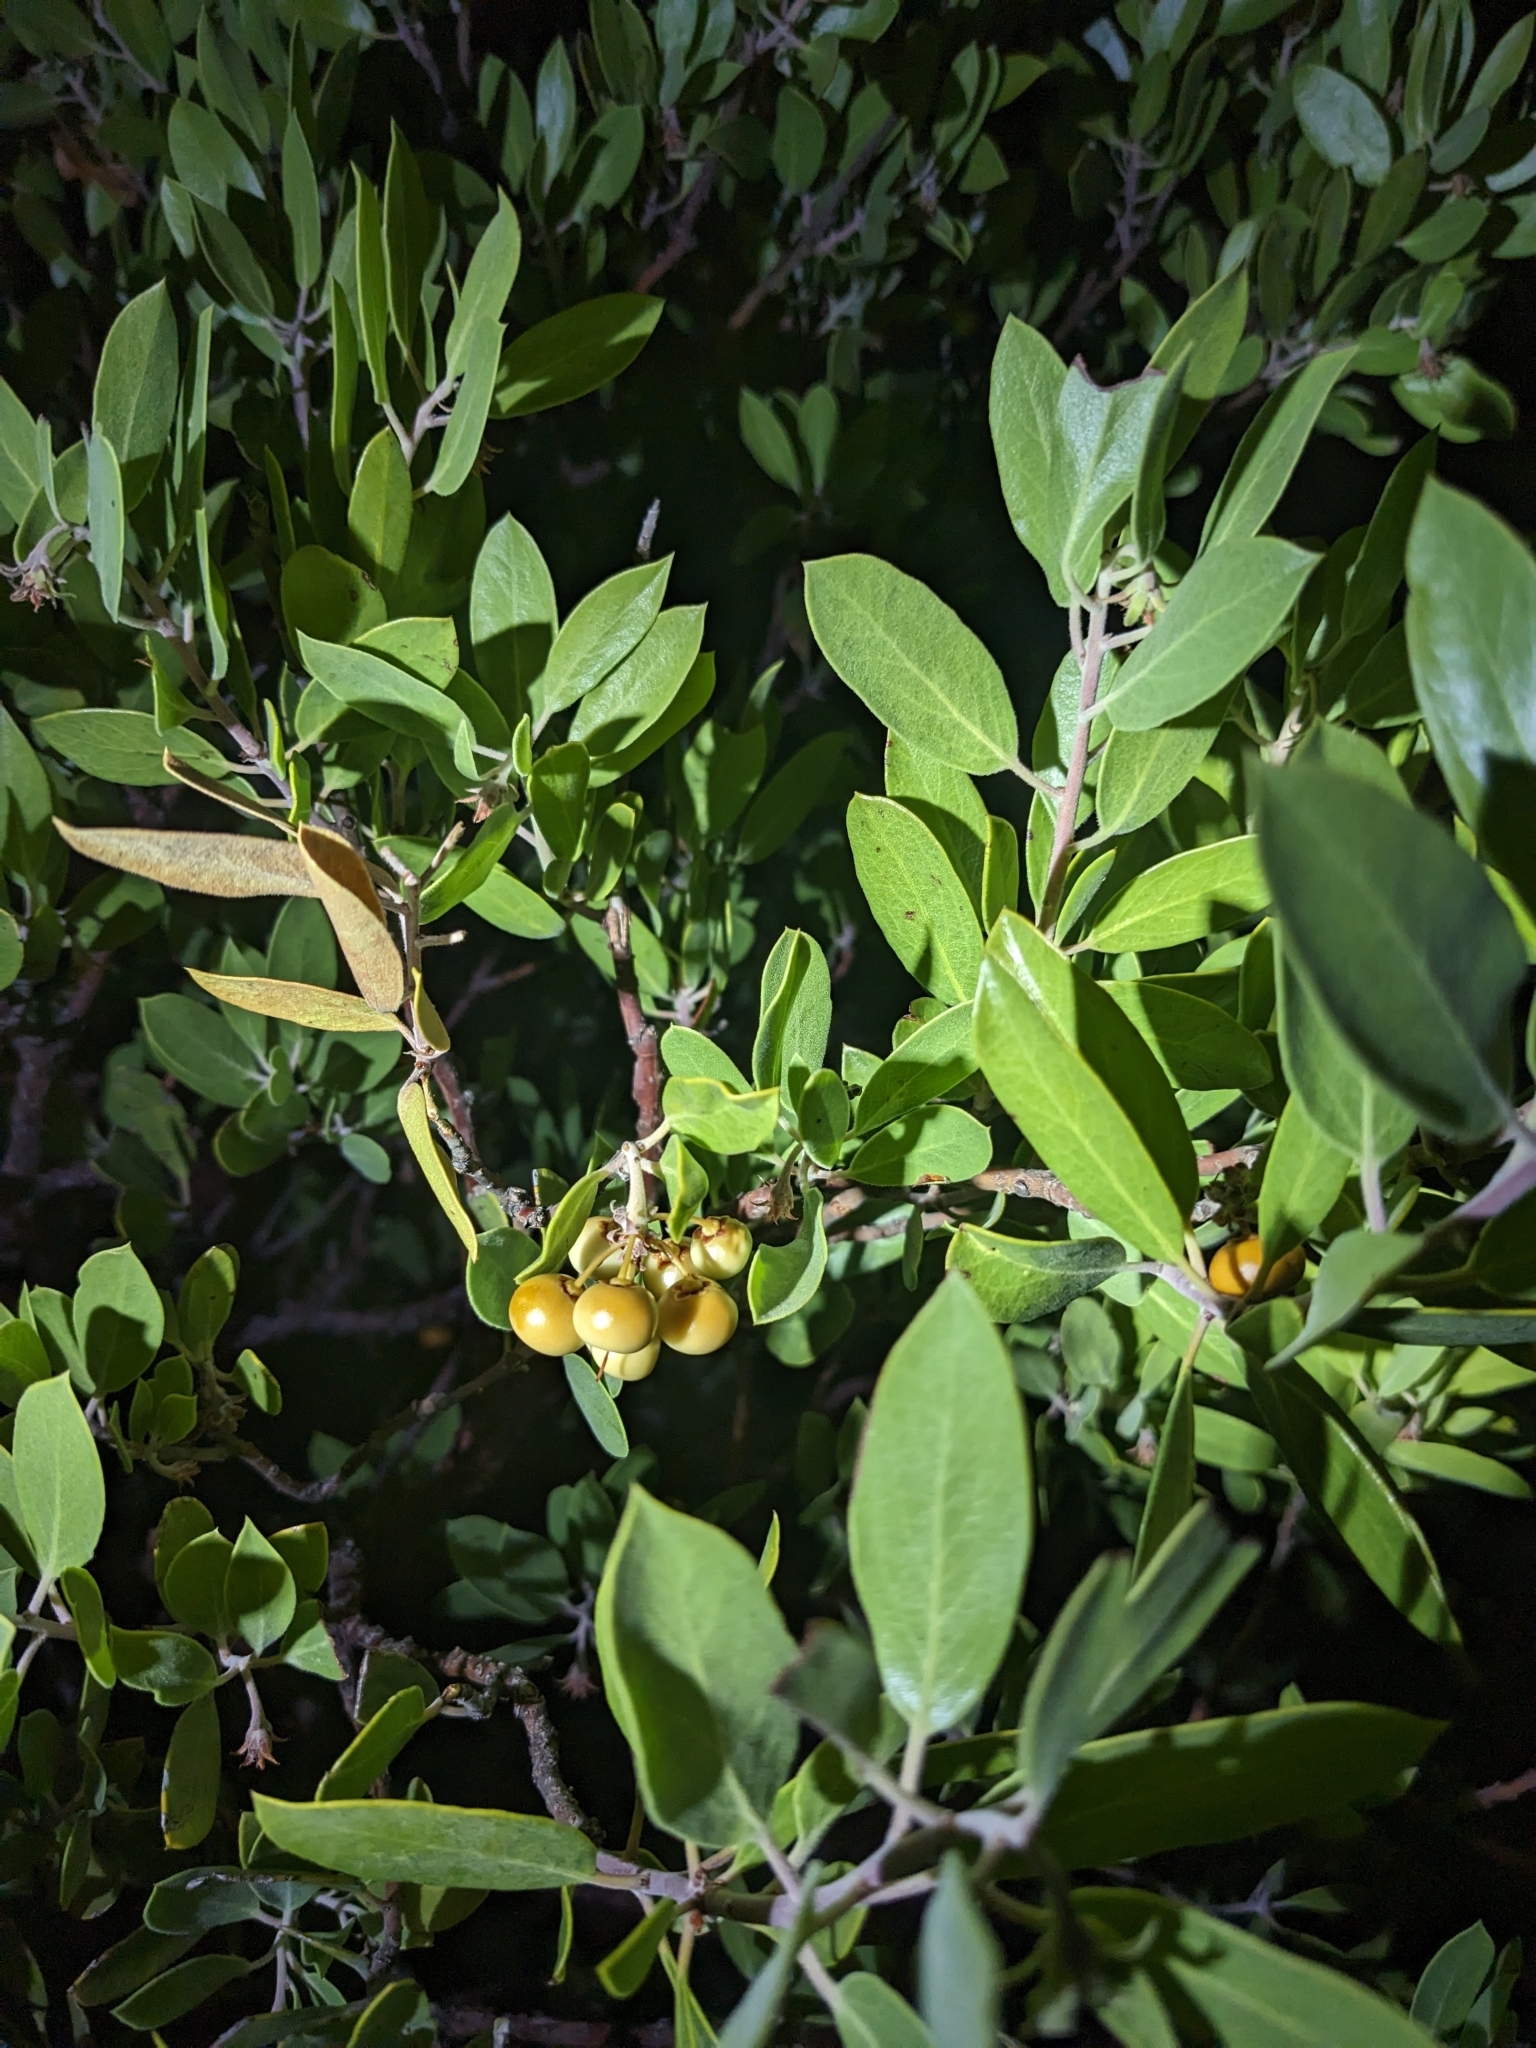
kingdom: Plantae
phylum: Tracheophyta
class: Magnoliopsida
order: Ericales
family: Ericaceae
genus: Arctostaphylos
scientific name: Arctostaphylos pungens
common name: Mexican manzanita
